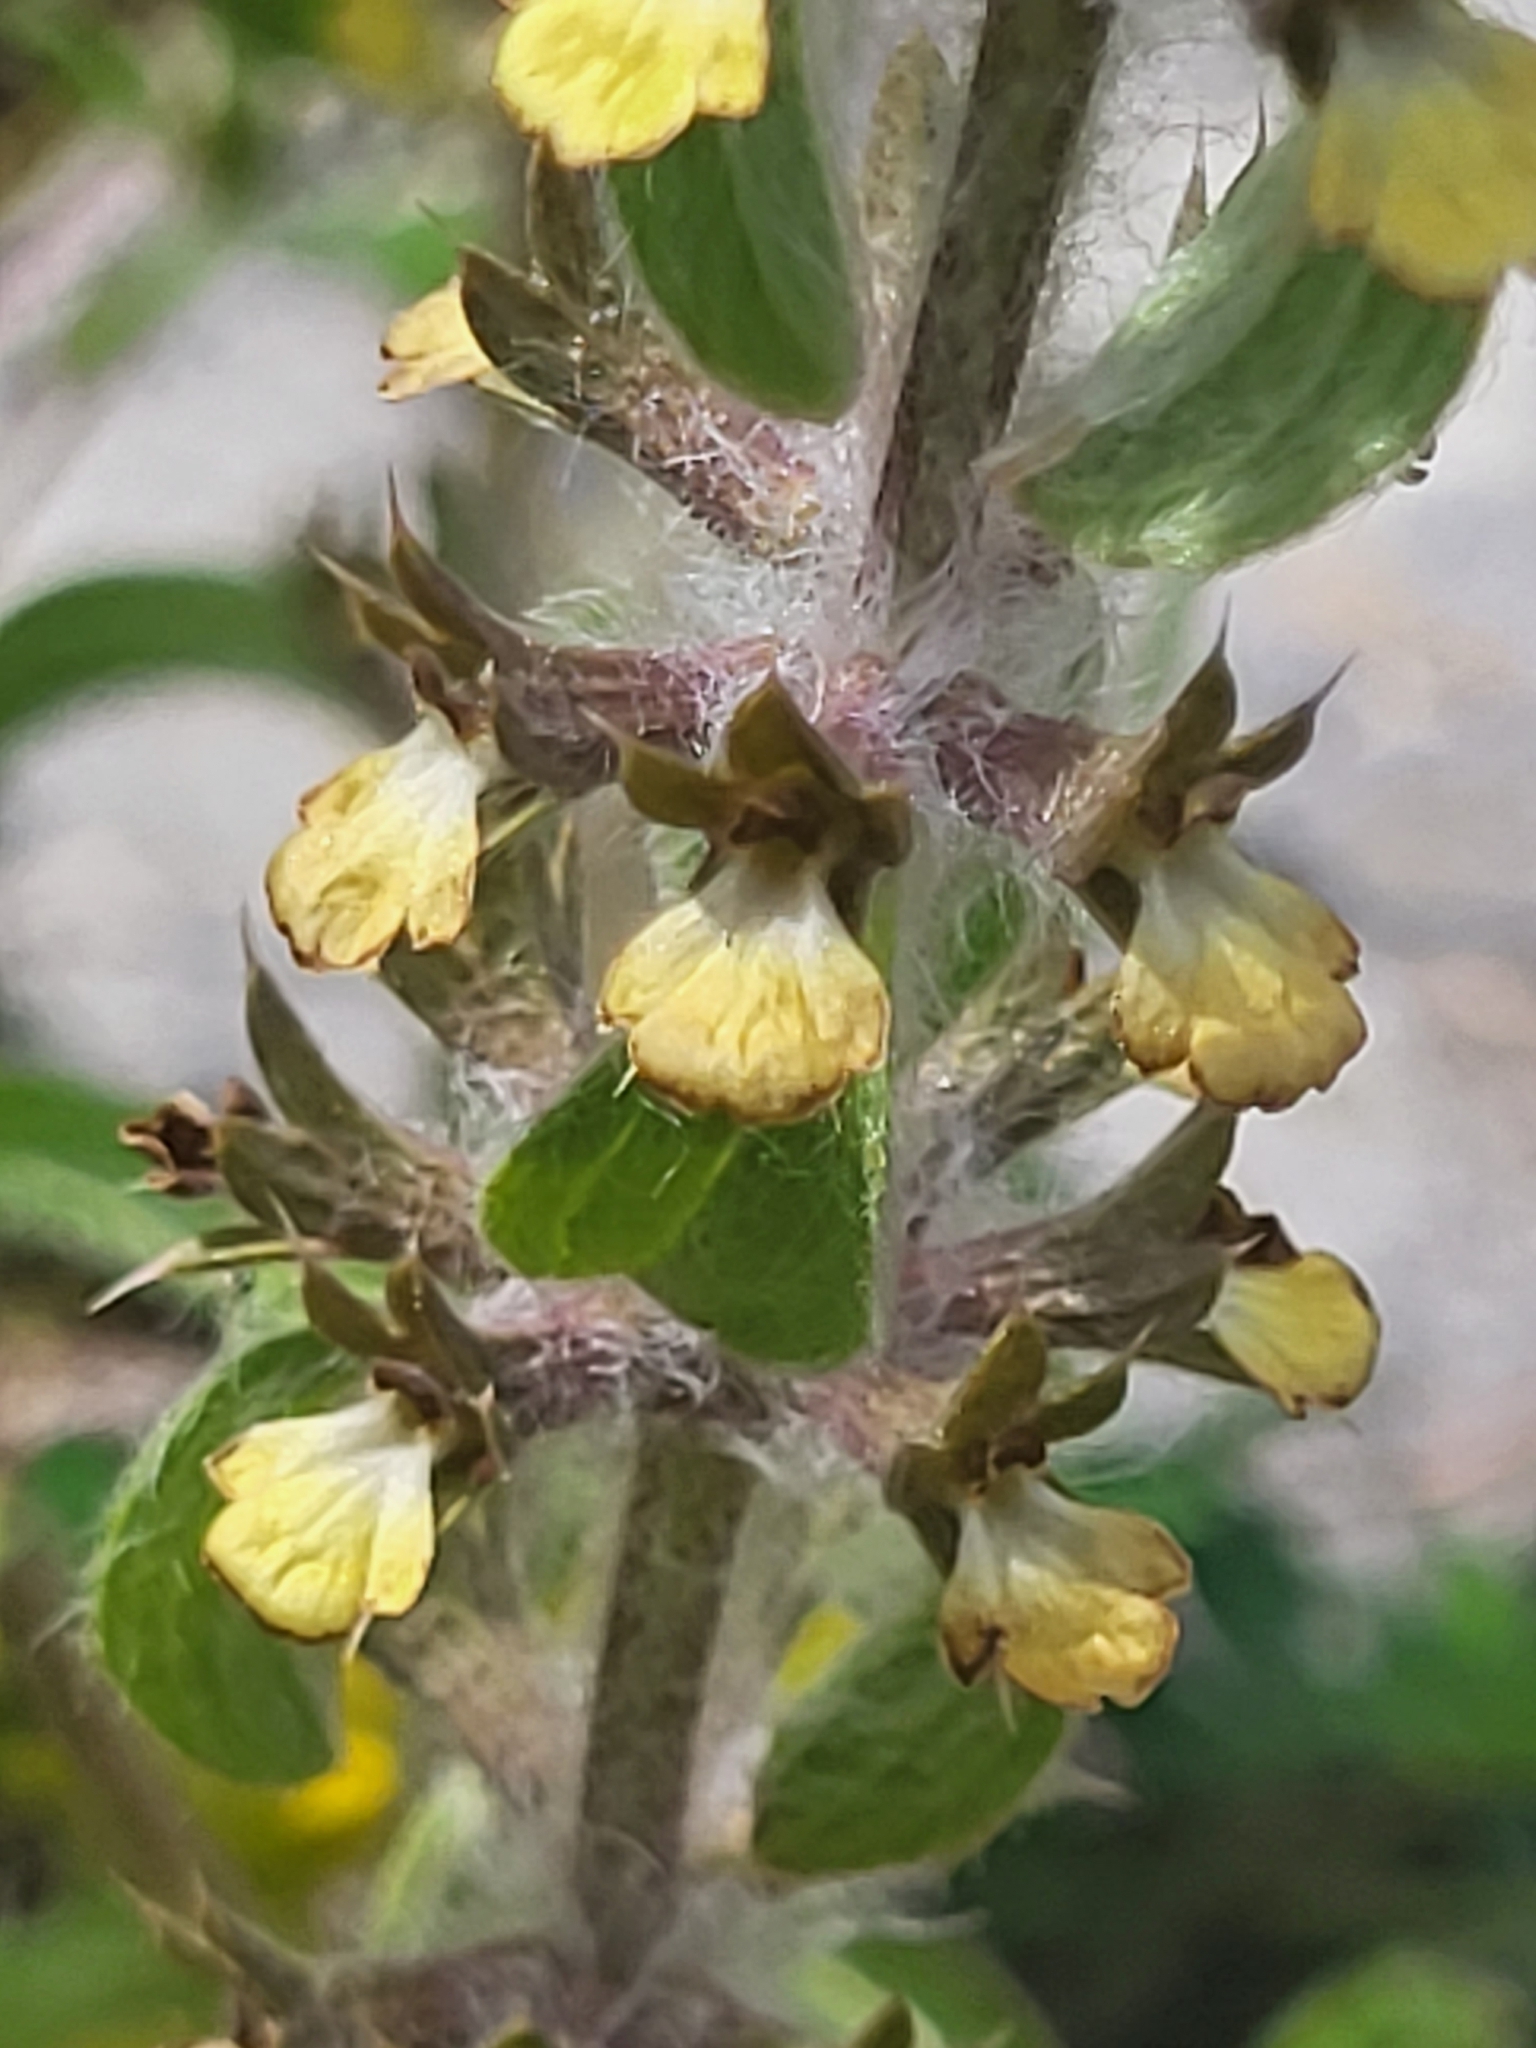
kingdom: Plantae
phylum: Tracheophyta
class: Magnoliopsida
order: Lamiales
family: Lamiaceae
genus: Sideritis
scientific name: Sideritis montana
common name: Mountain ironwort
